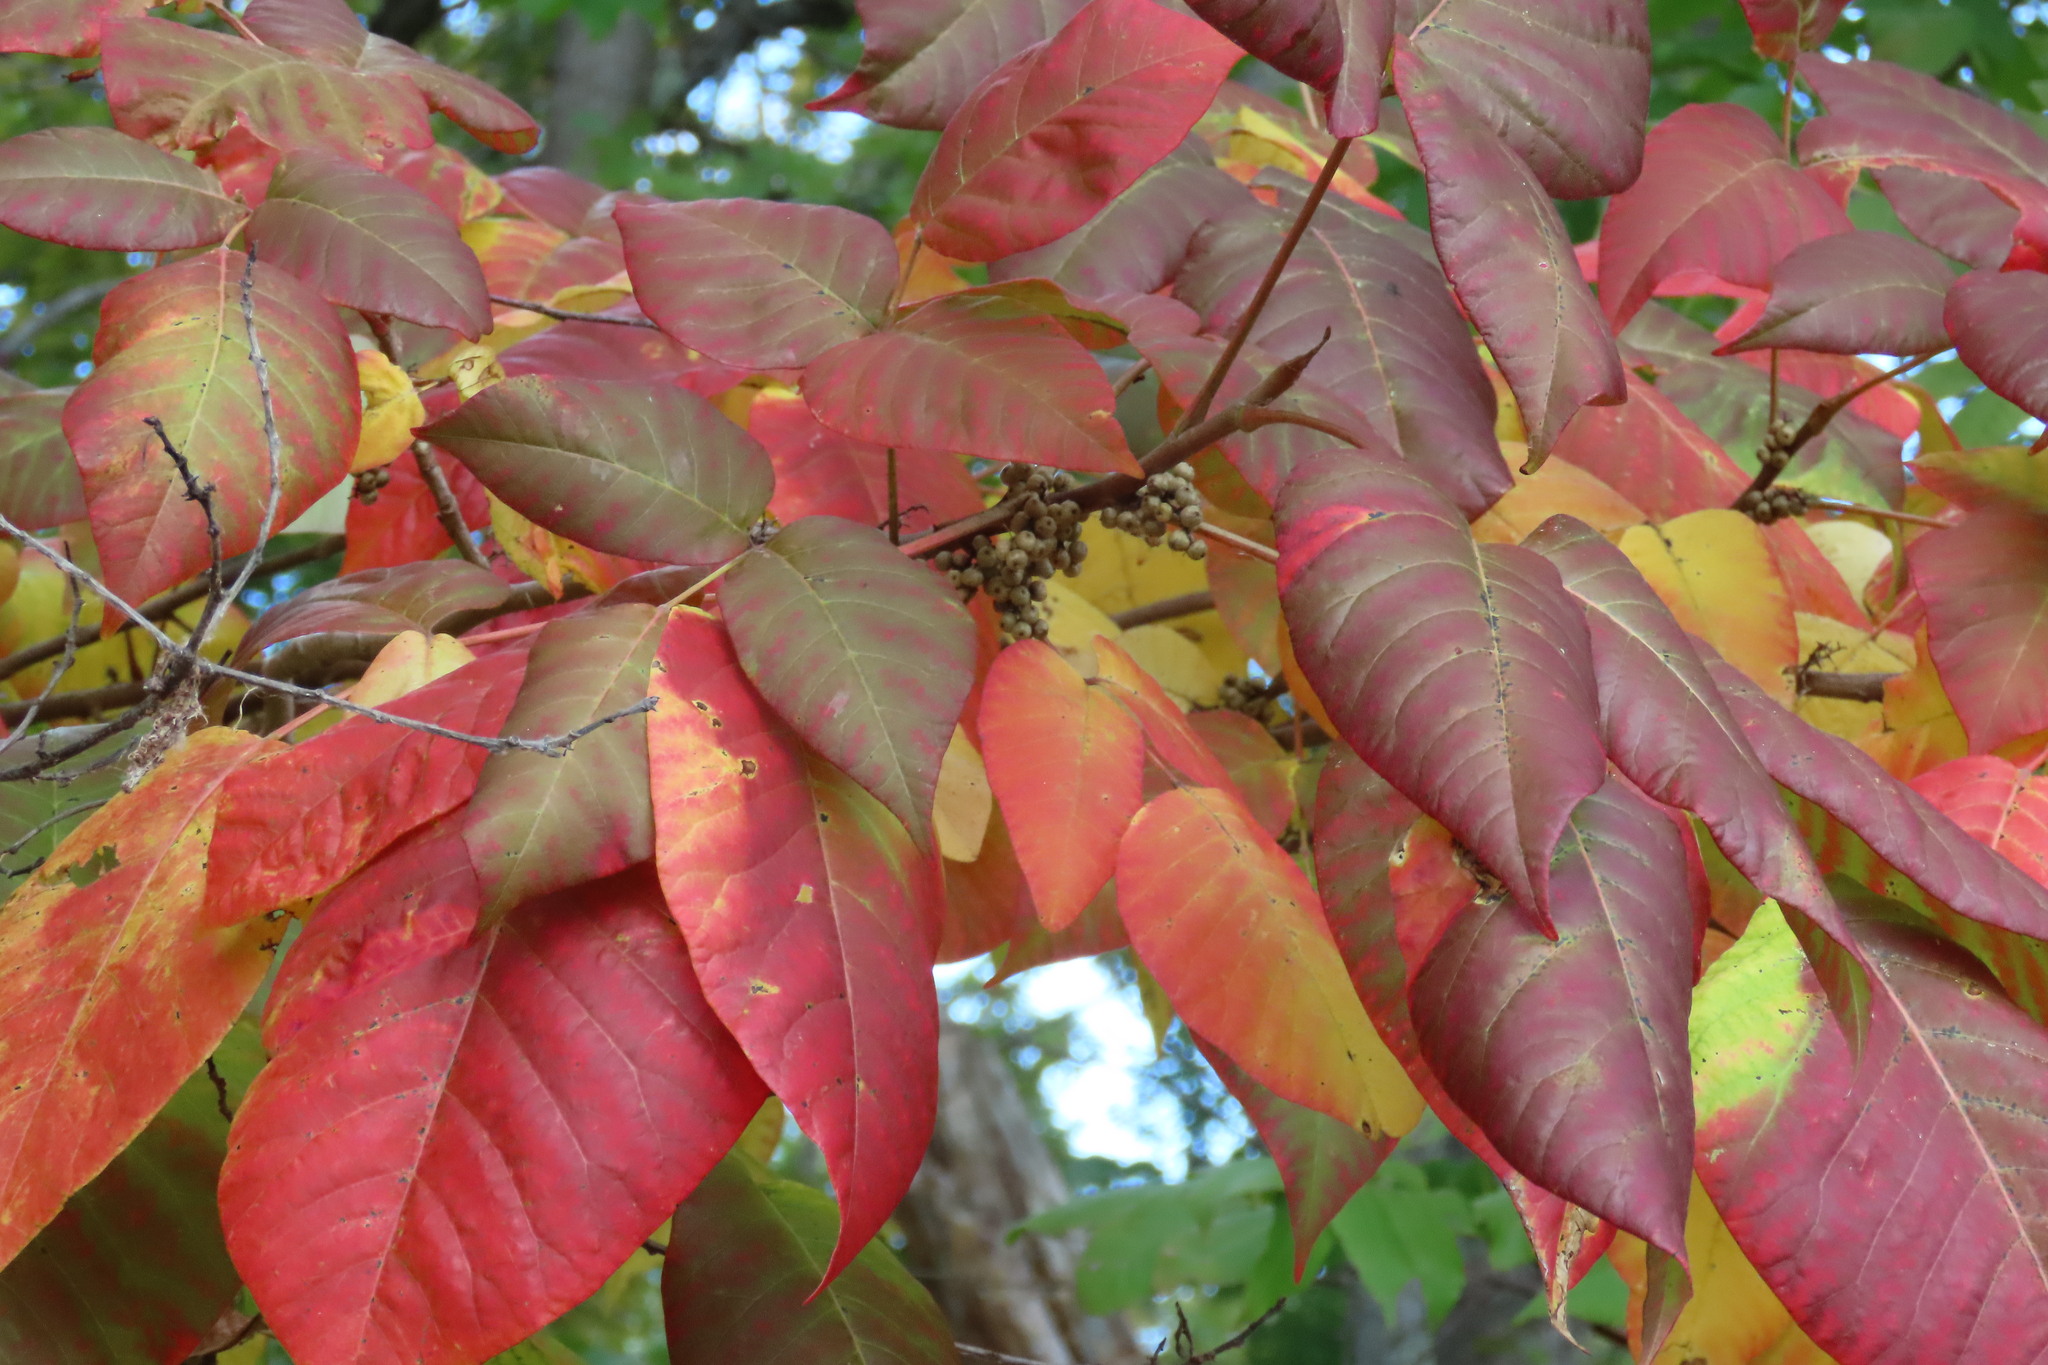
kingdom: Plantae
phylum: Tracheophyta
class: Magnoliopsida
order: Sapindales
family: Anacardiaceae
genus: Toxicodendron
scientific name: Toxicodendron radicans
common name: Poison ivy
